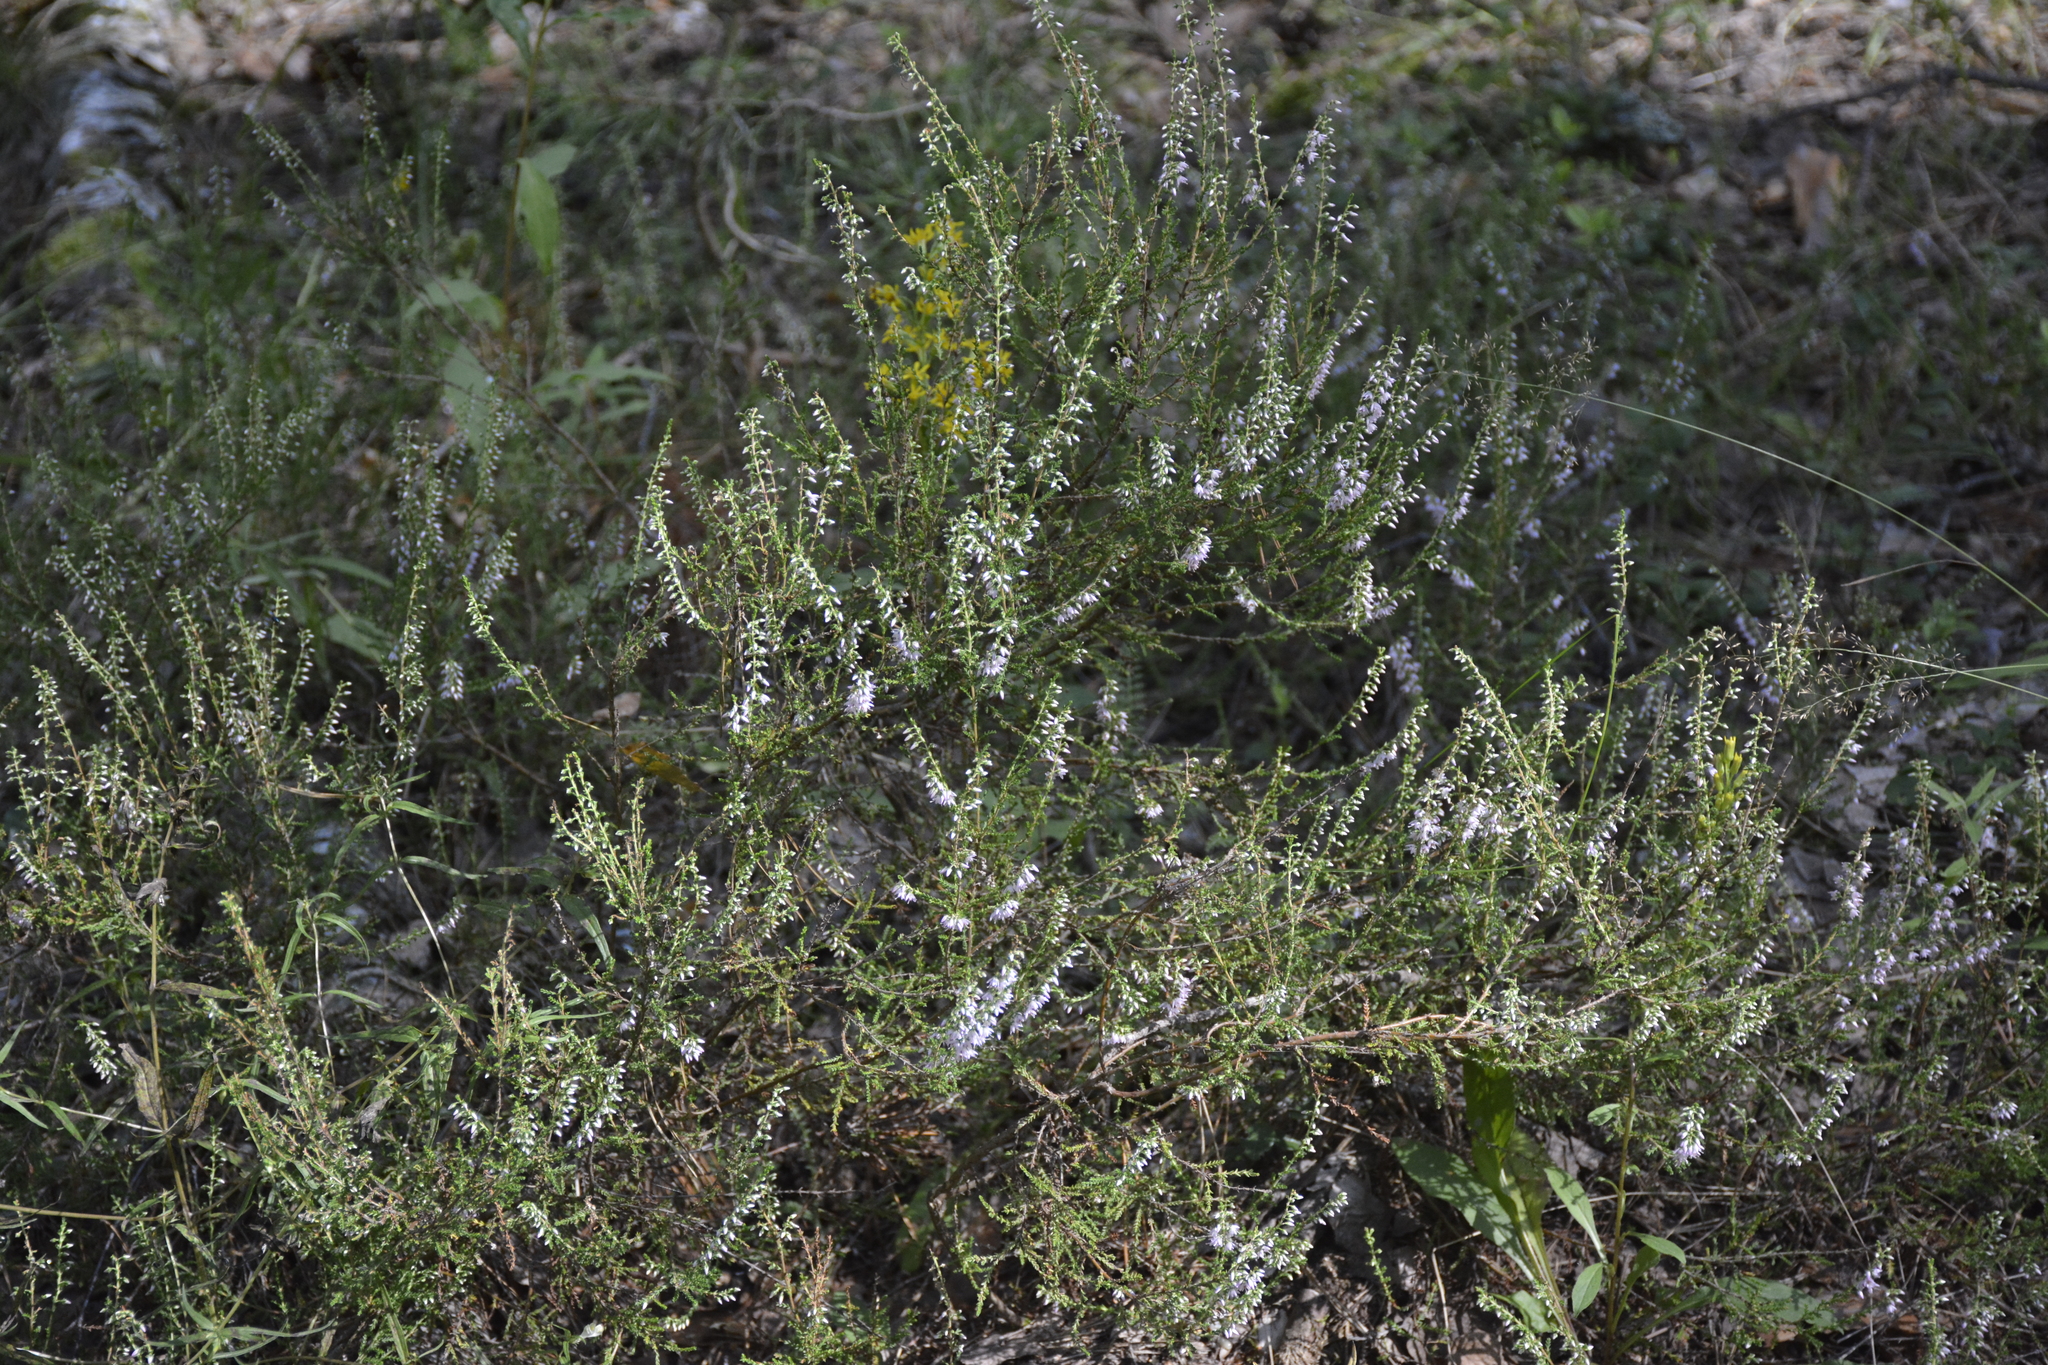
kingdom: Plantae
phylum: Tracheophyta
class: Magnoliopsida
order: Ericales
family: Ericaceae
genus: Calluna
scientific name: Calluna vulgaris
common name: Heather
